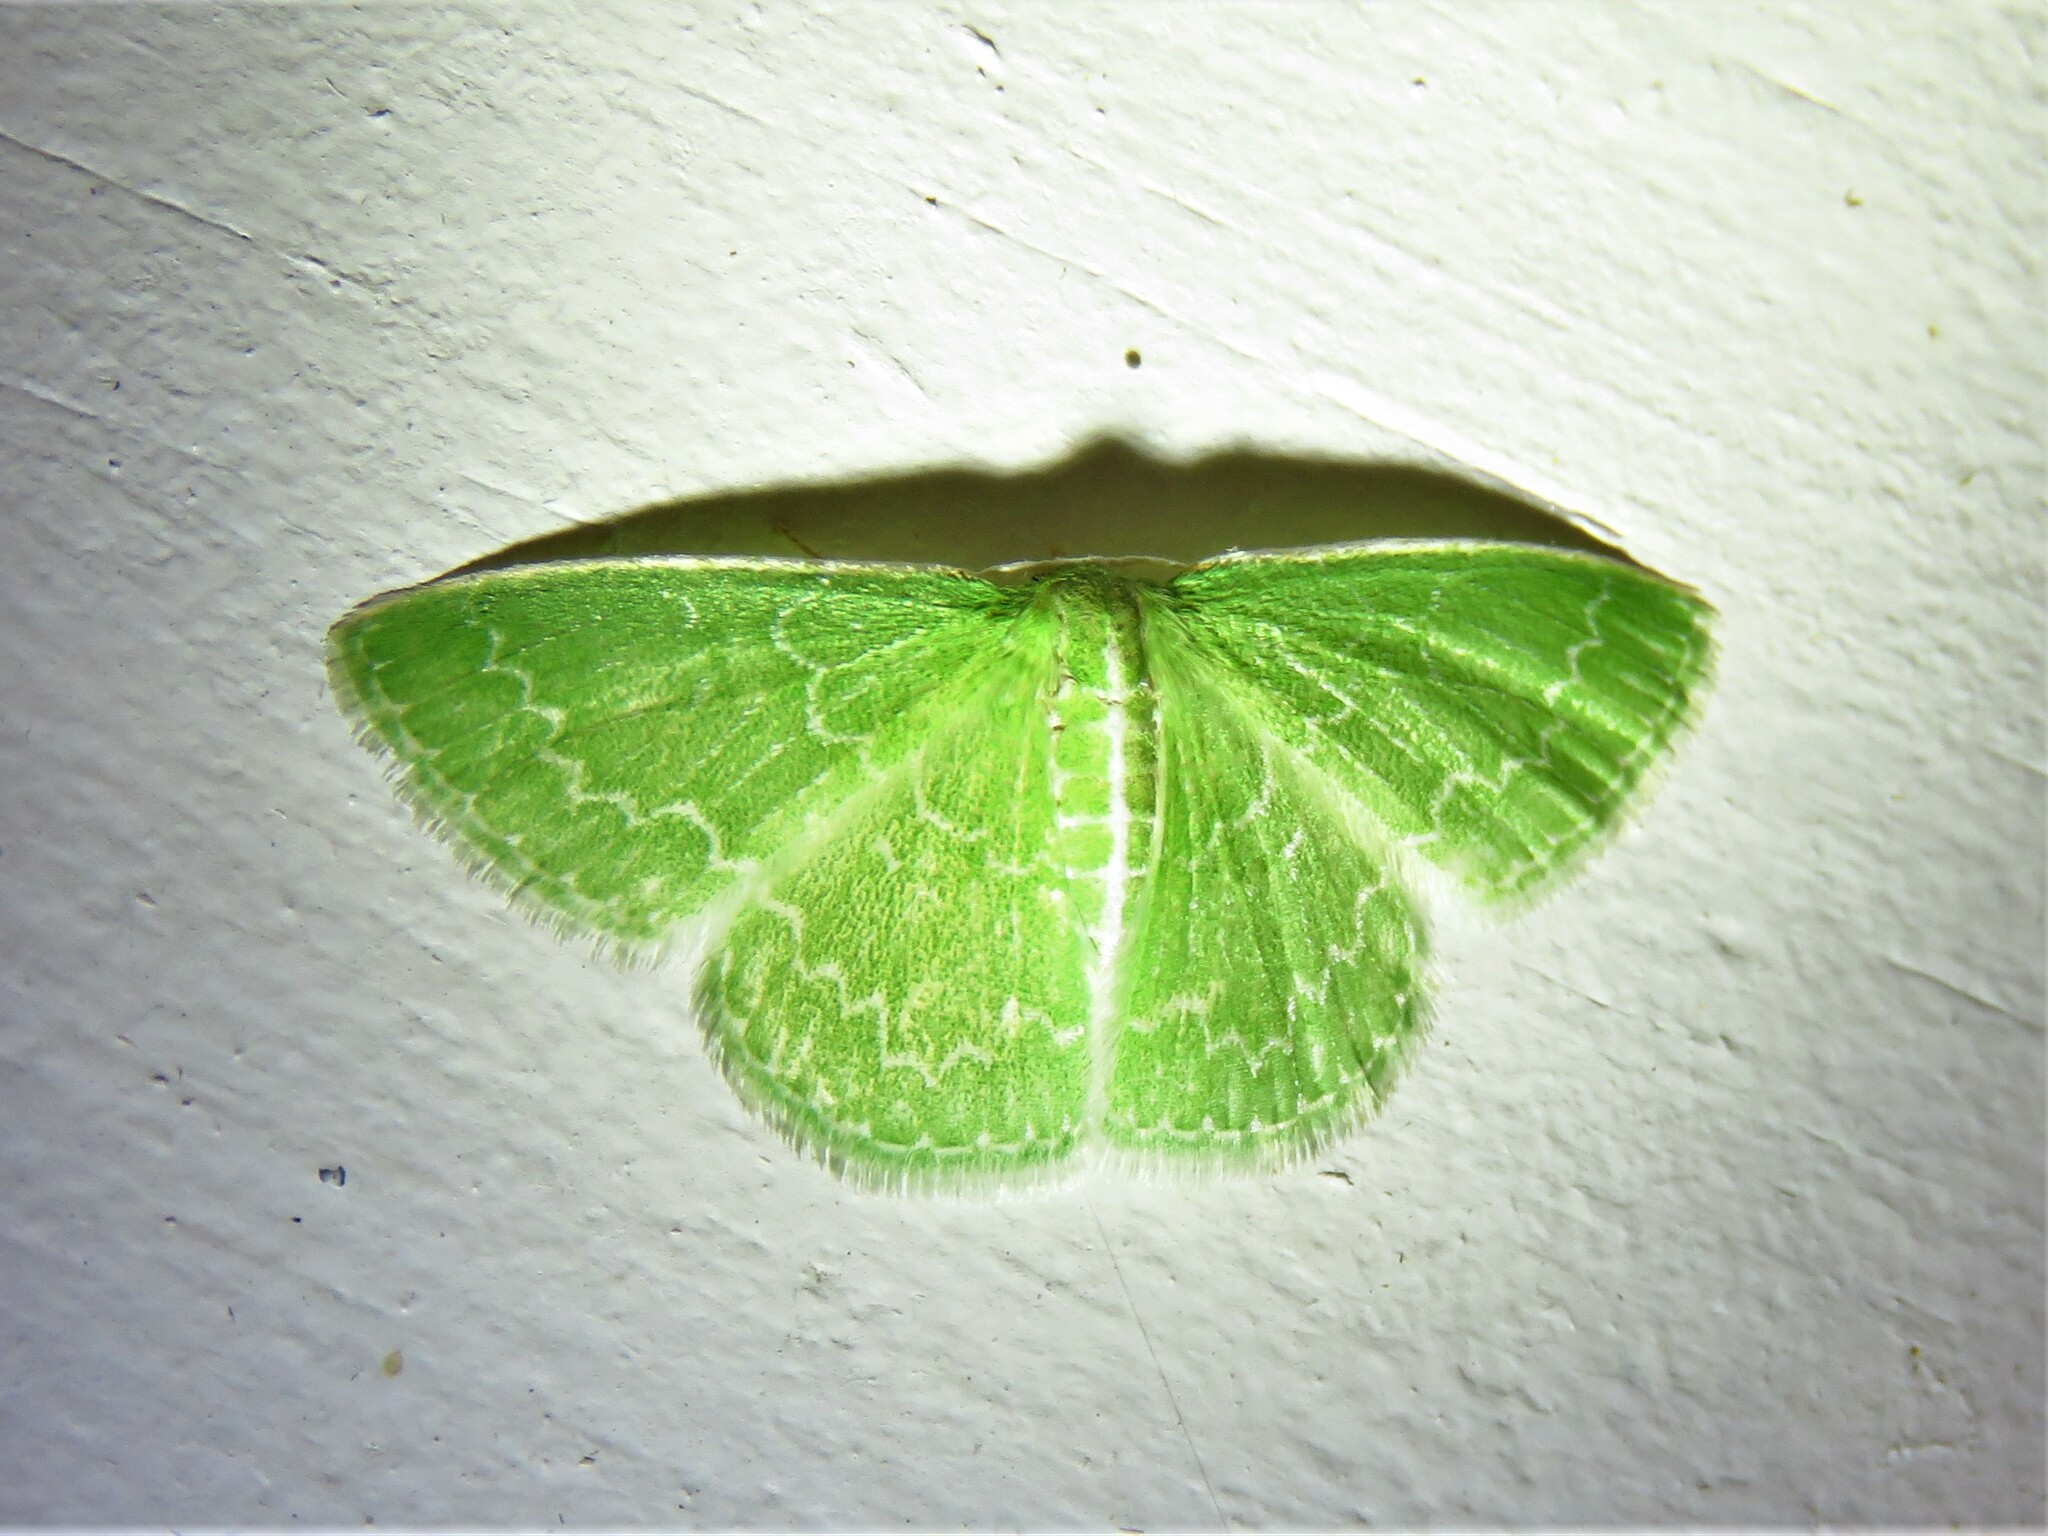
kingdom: Animalia
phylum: Arthropoda
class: Insecta
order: Lepidoptera
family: Geometridae
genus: Synchlora
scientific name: Synchlora frondaria
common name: Southern emerald
